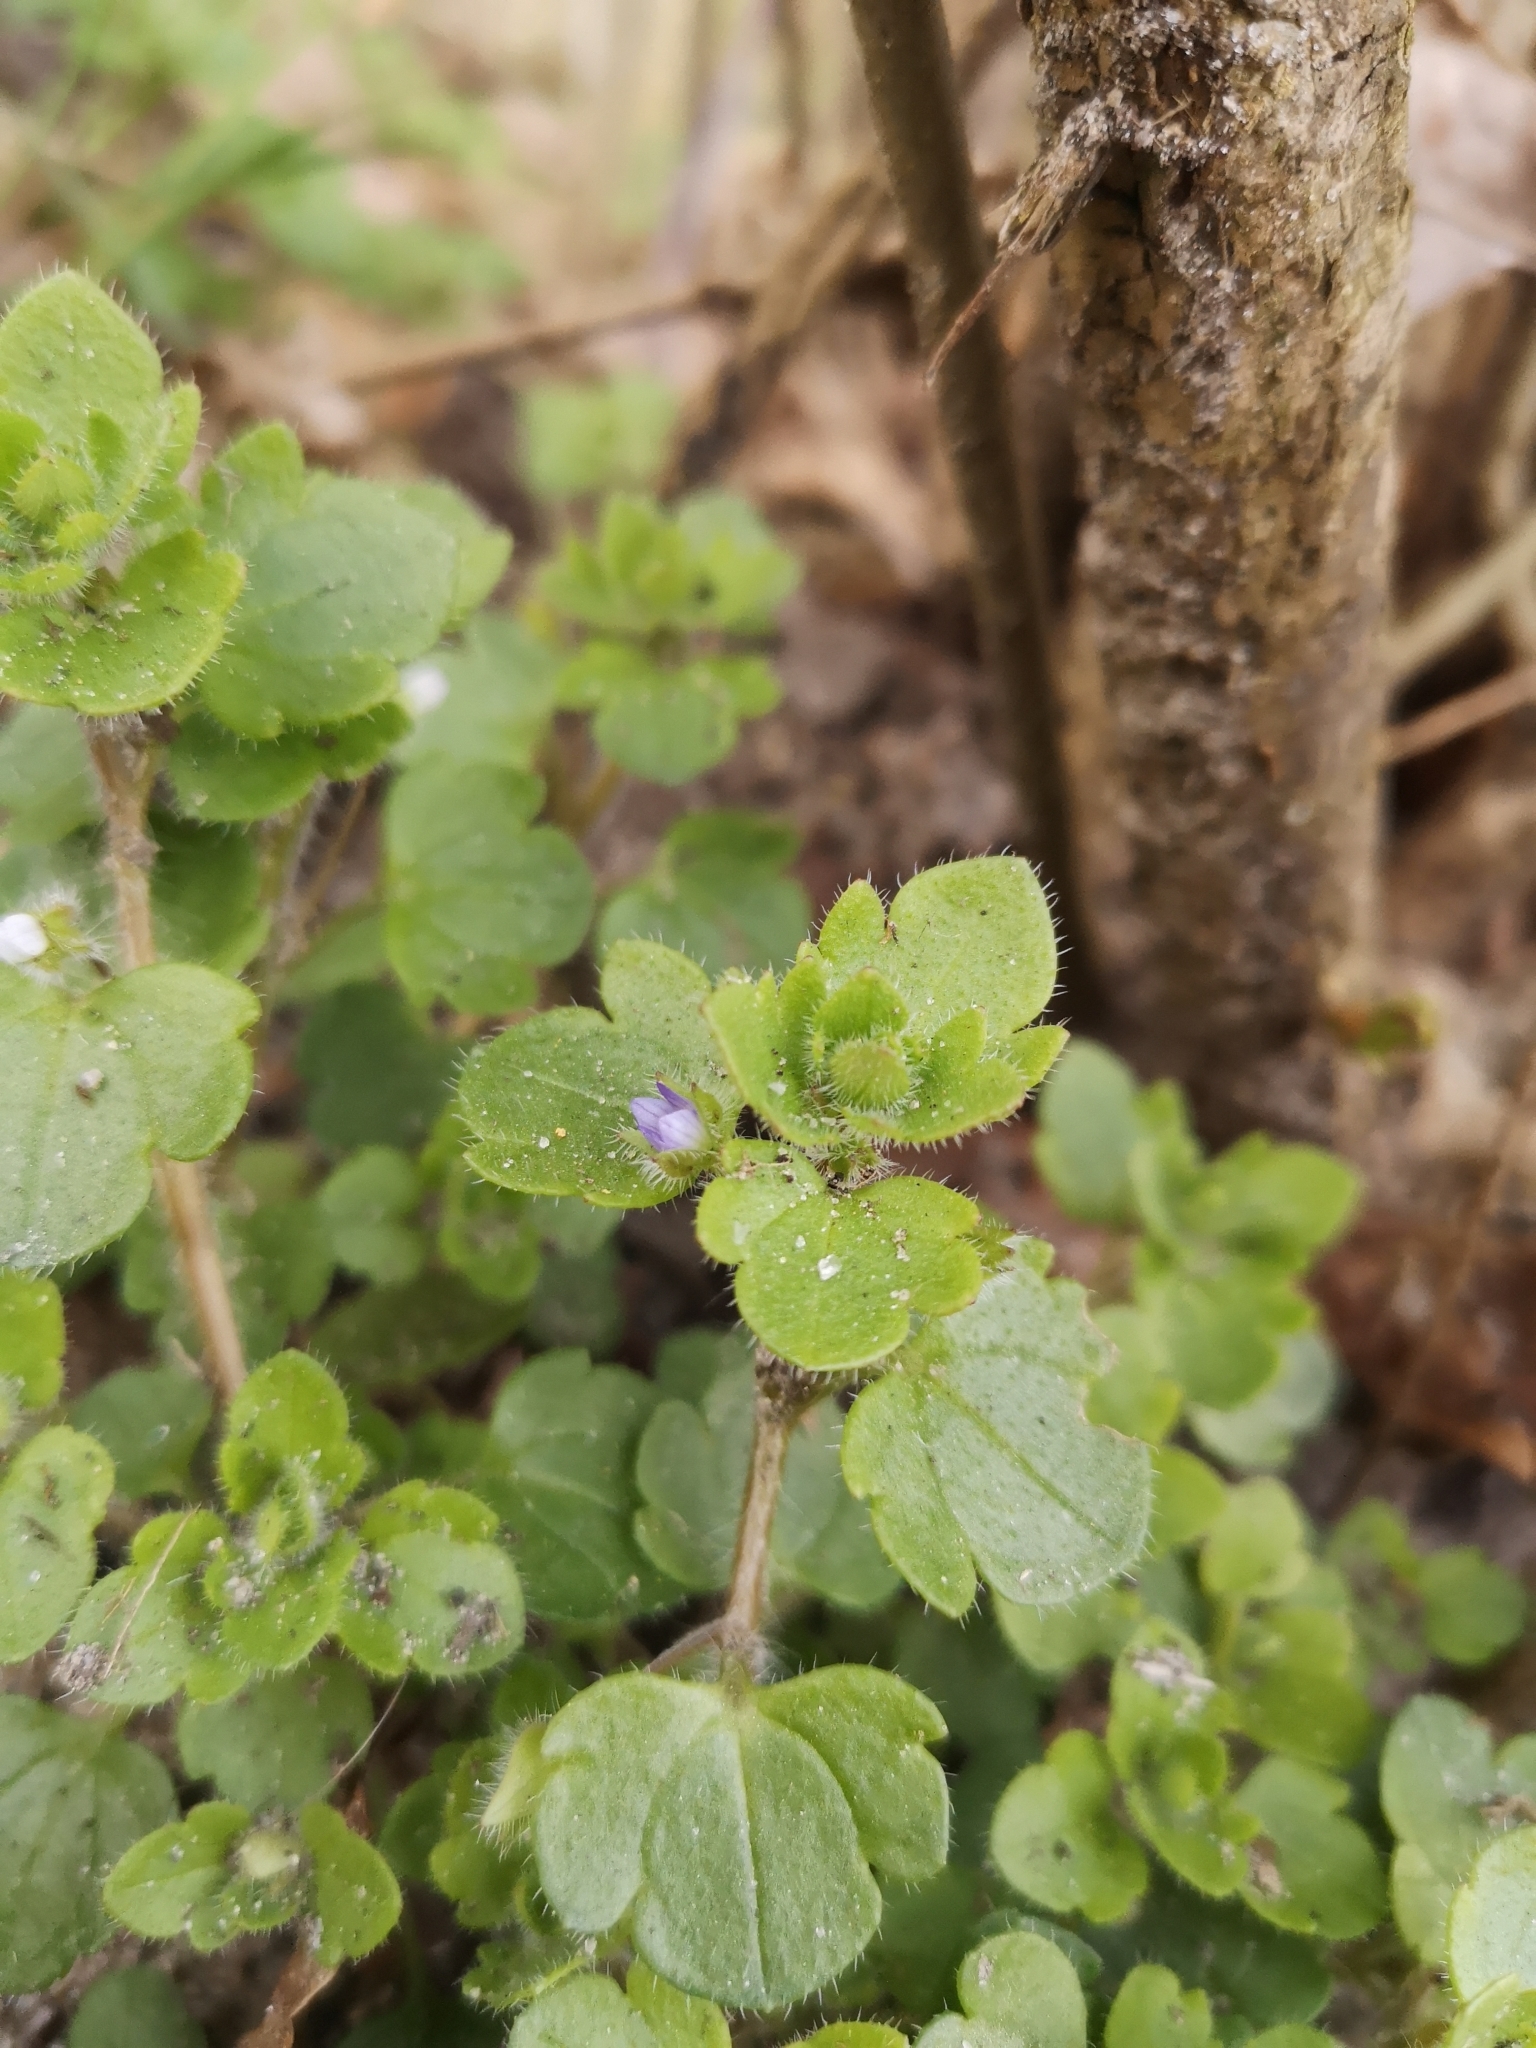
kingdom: Plantae
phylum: Tracheophyta
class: Magnoliopsida
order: Lamiales
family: Plantaginaceae
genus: Veronica
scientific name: Veronica hederifolia
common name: Ivy-leaved speedwell
